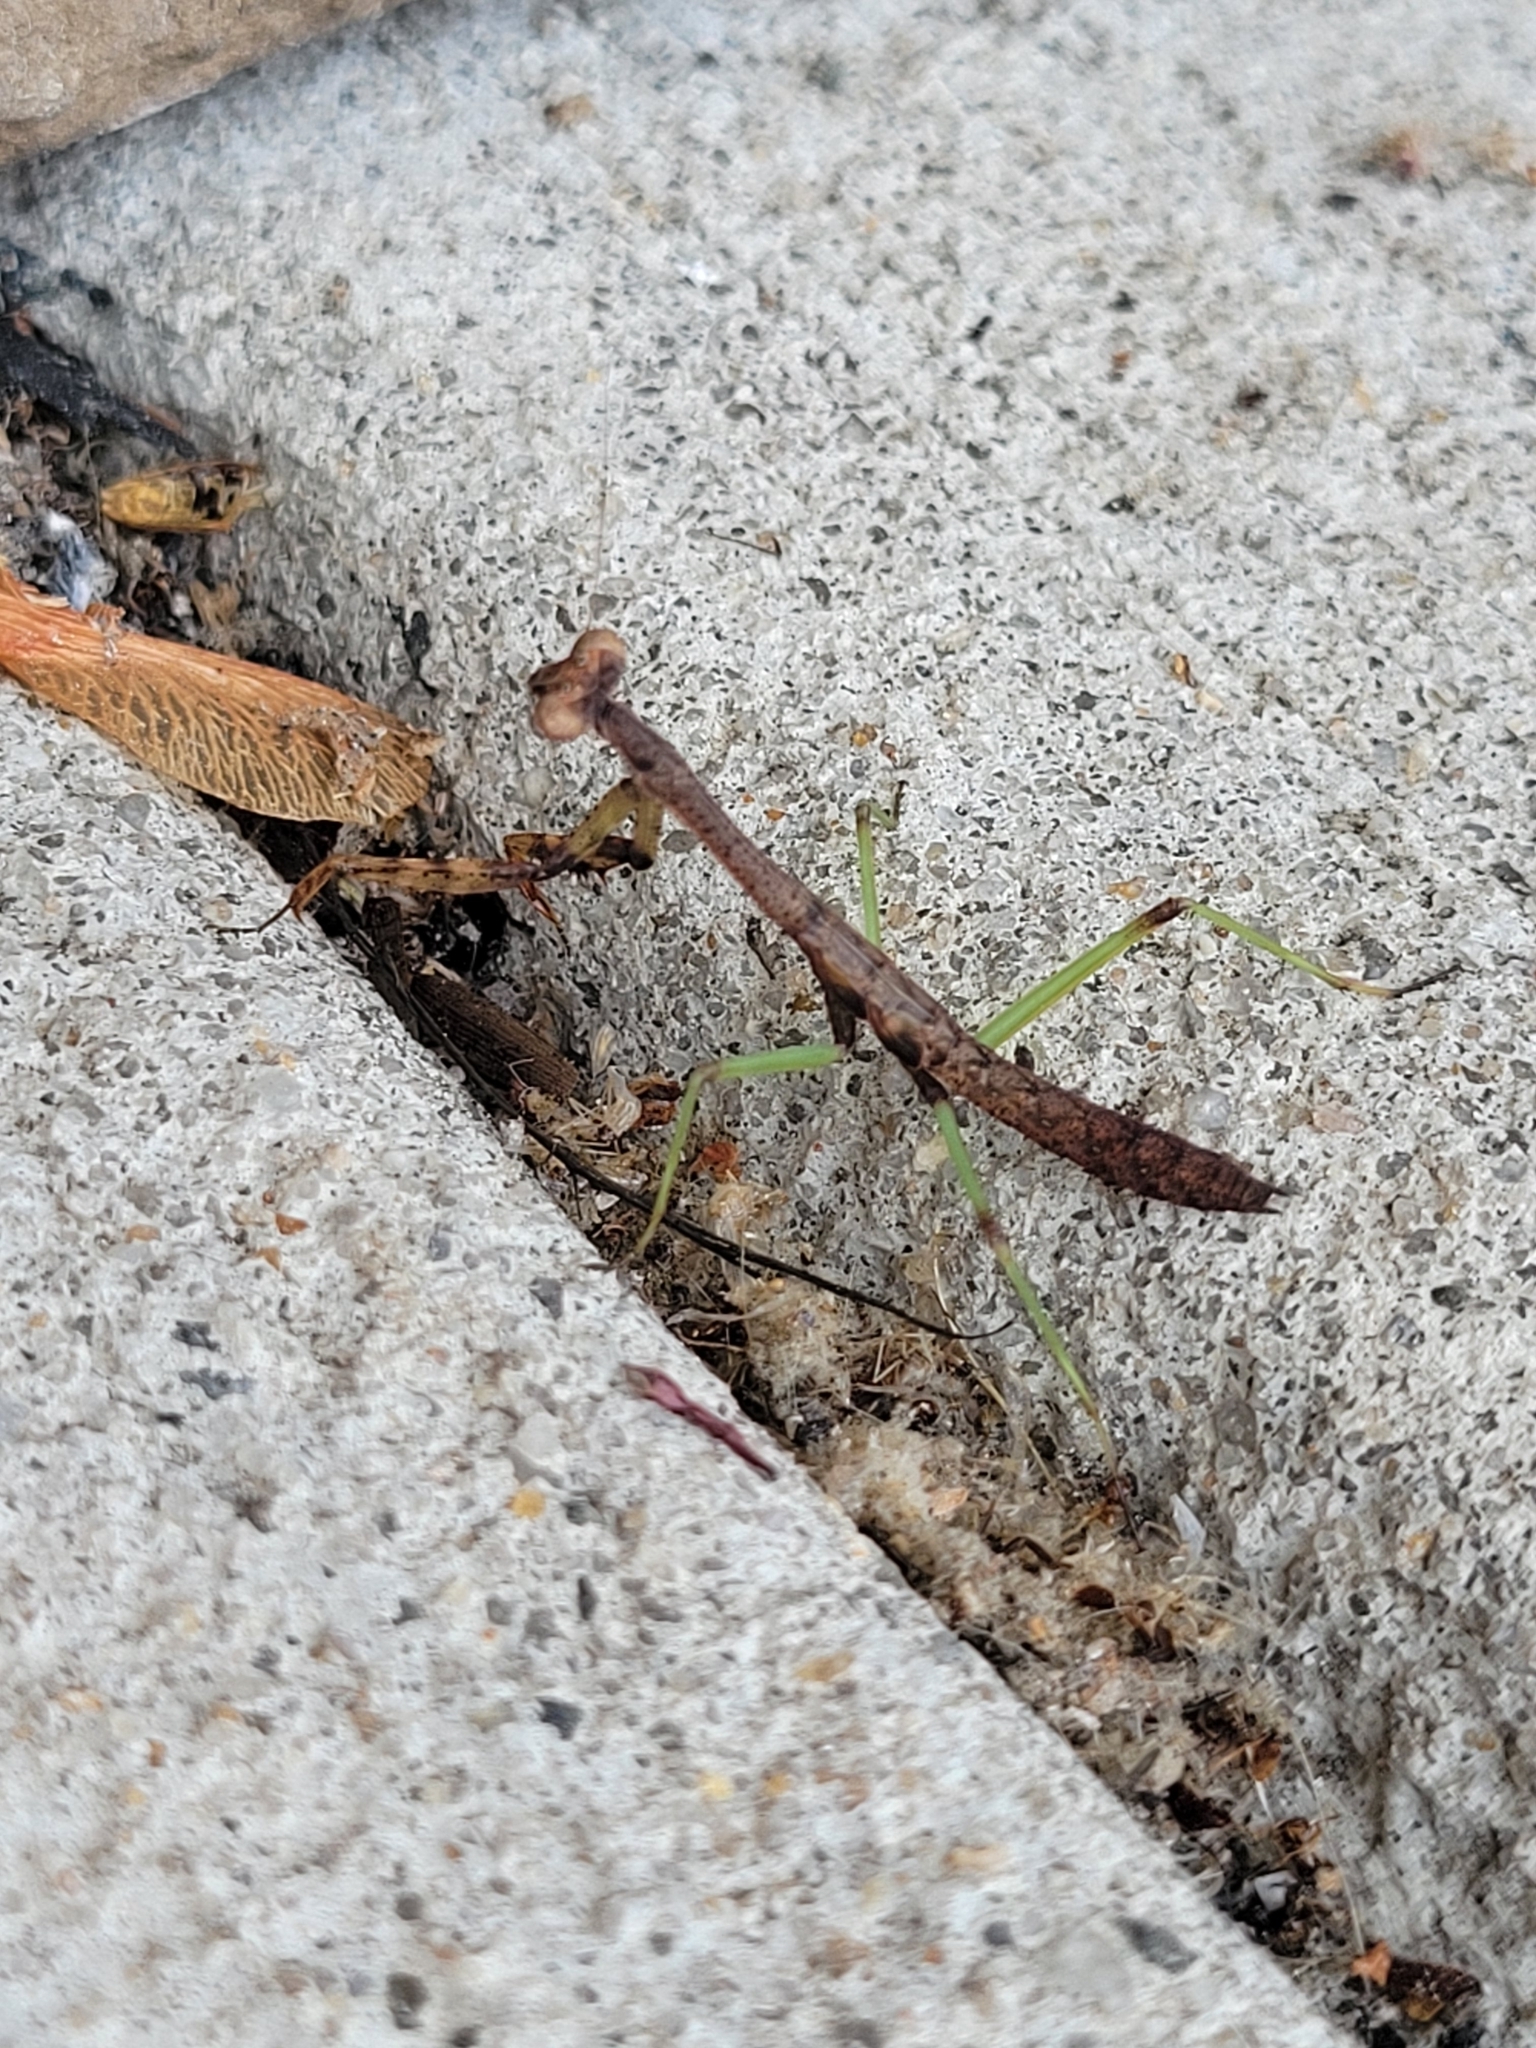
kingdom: Animalia
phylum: Arthropoda
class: Insecta
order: Mantodea
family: Mantidae
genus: Stagmomantis
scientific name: Stagmomantis carolina
